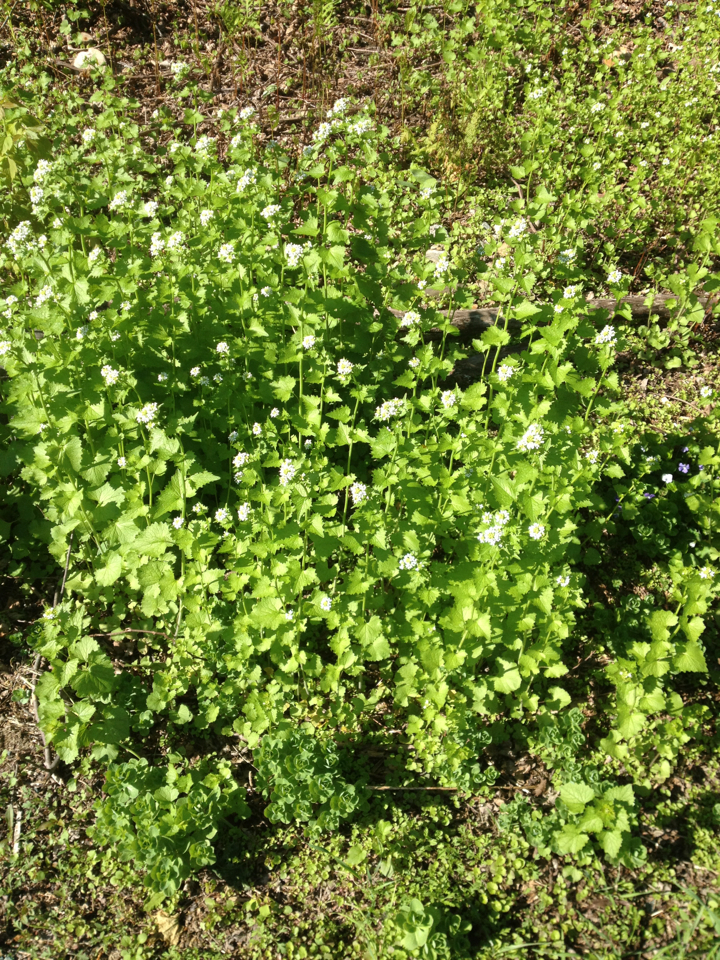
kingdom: Plantae
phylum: Tracheophyta
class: Magnoliopsida
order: Brassicales
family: Brassicaceae
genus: Alliaria
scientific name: Alliaria petiolata
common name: Garlic mustard
